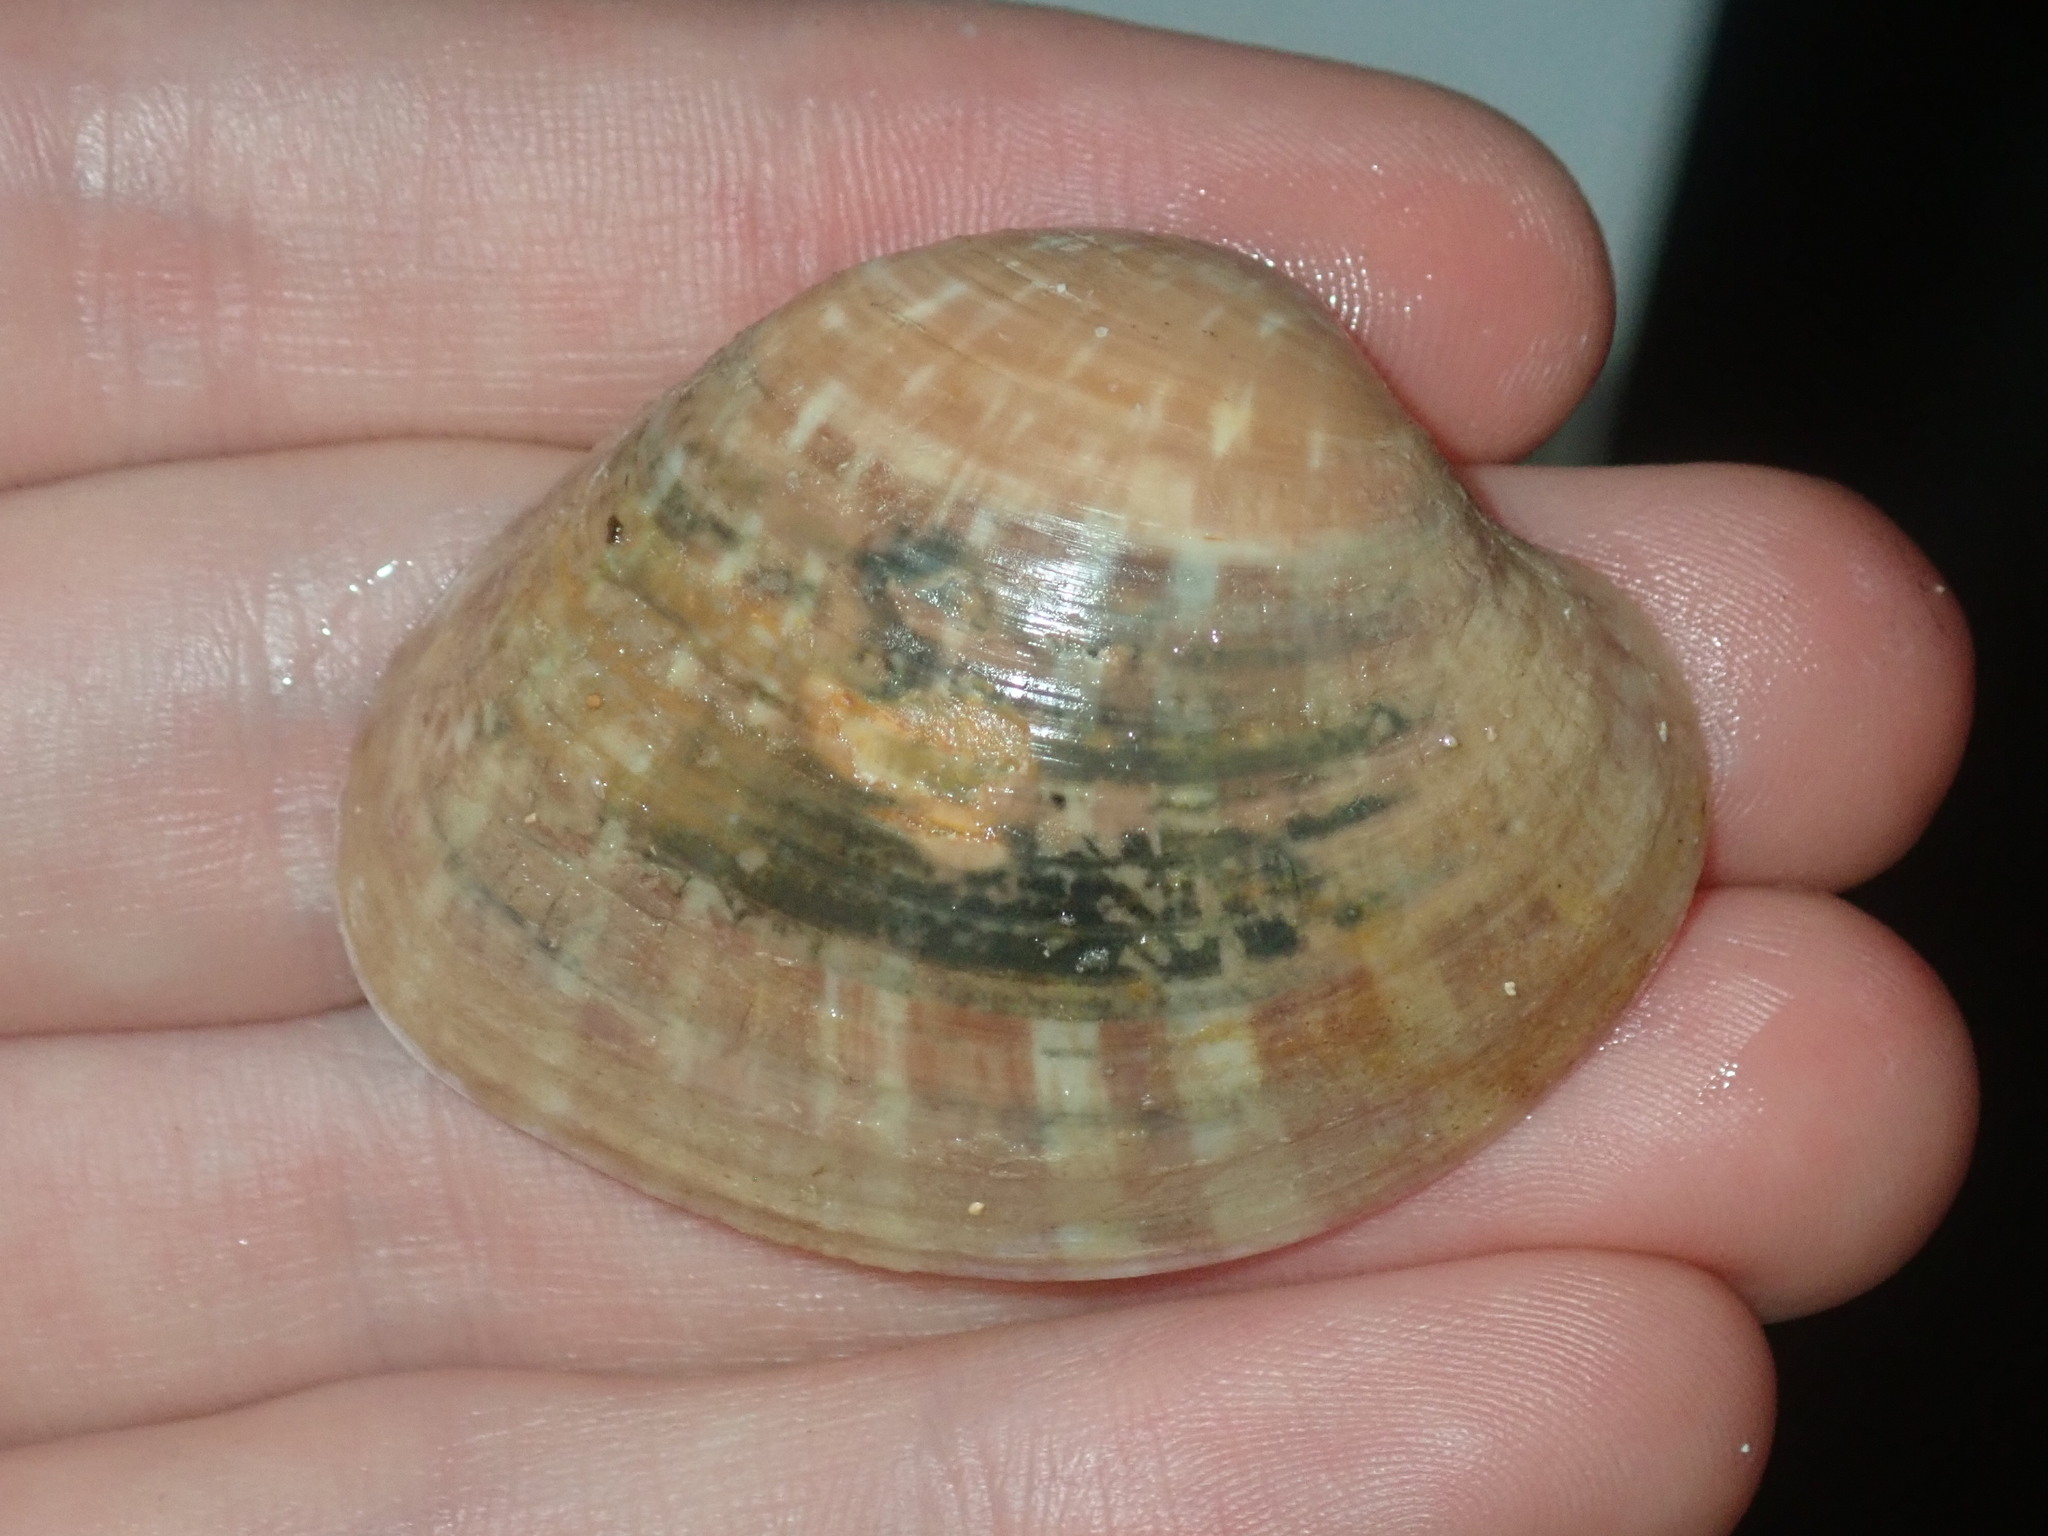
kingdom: Animalia
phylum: Mollusca
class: Bivalvia
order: Venerida
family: Veneridae
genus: Callista
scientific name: Callista disrupta
